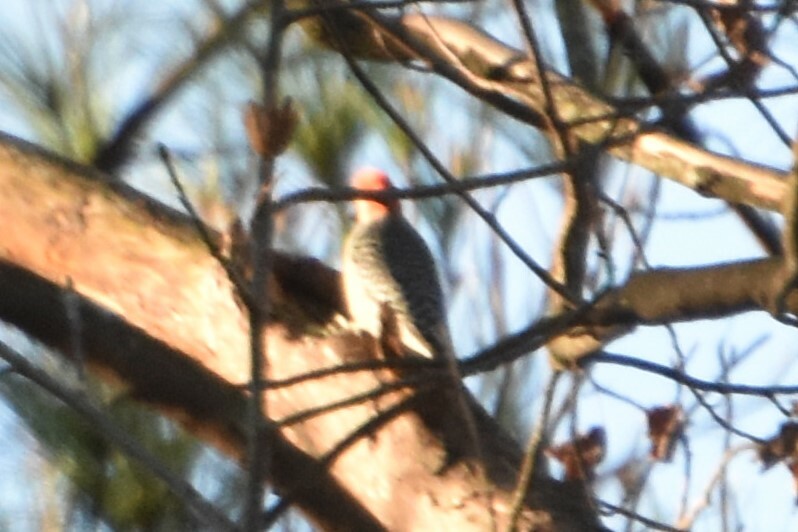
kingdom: Animalia
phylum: Chordata
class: Aves
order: Piciformes
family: Picidae
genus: Melanerpes
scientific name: Melanerpes carolinus
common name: Red-bellied woodpecker
